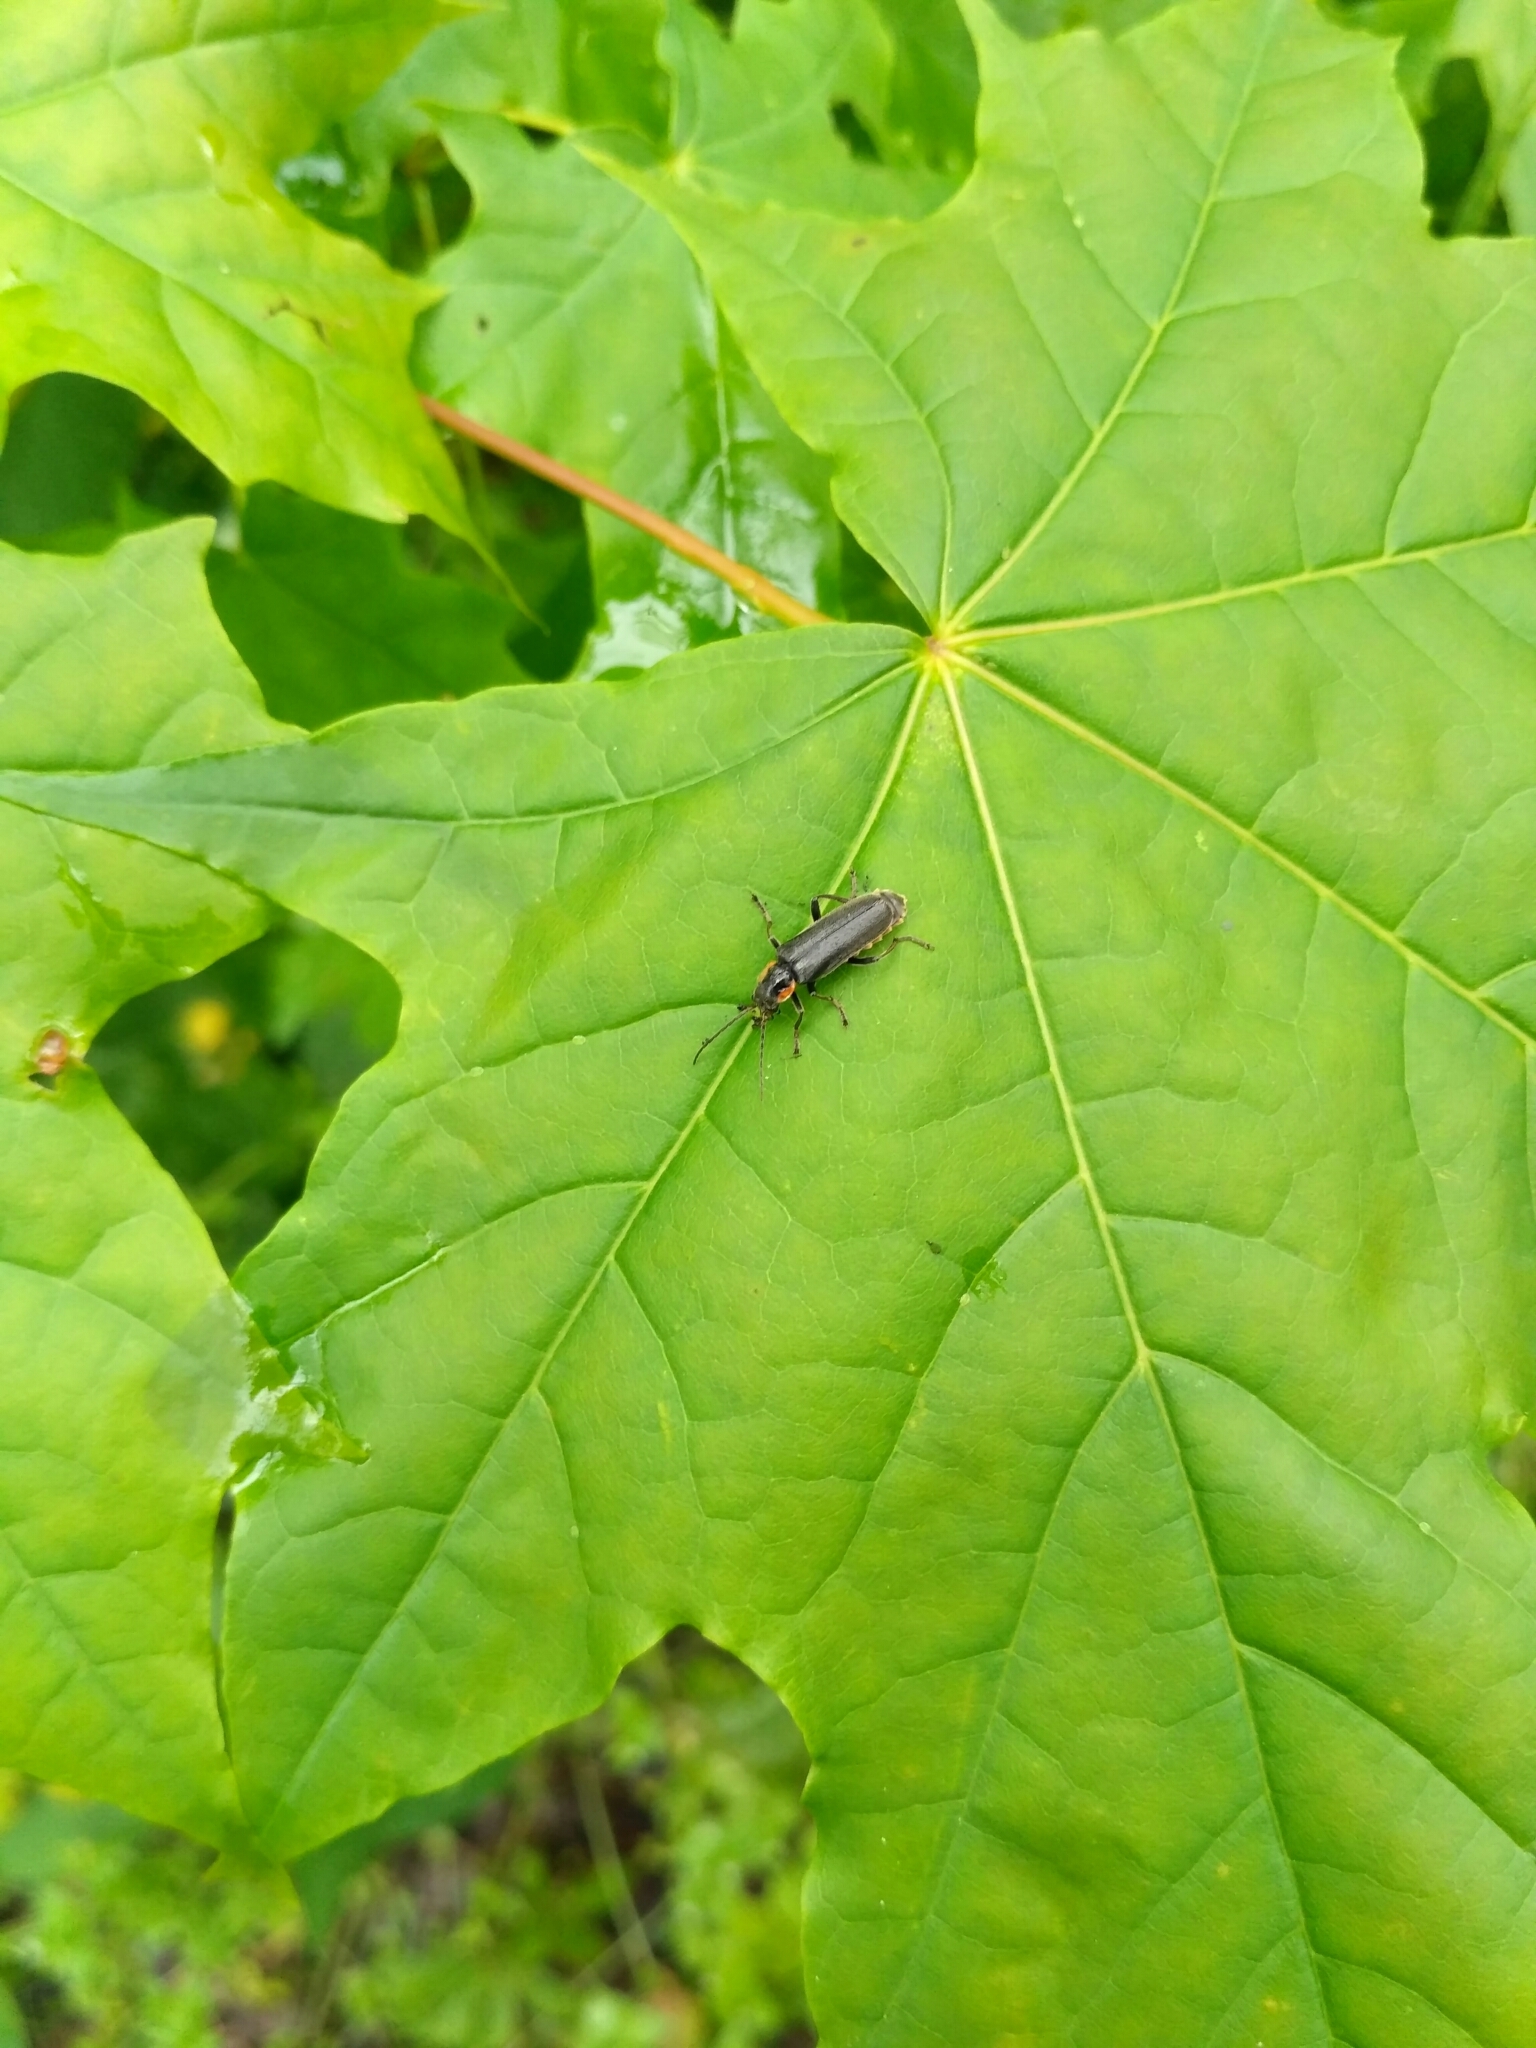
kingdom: Animalia
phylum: Arthropoda
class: Insecta
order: Coleoptera
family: Cantharidae
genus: Cantharis
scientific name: Cantharis obscura
